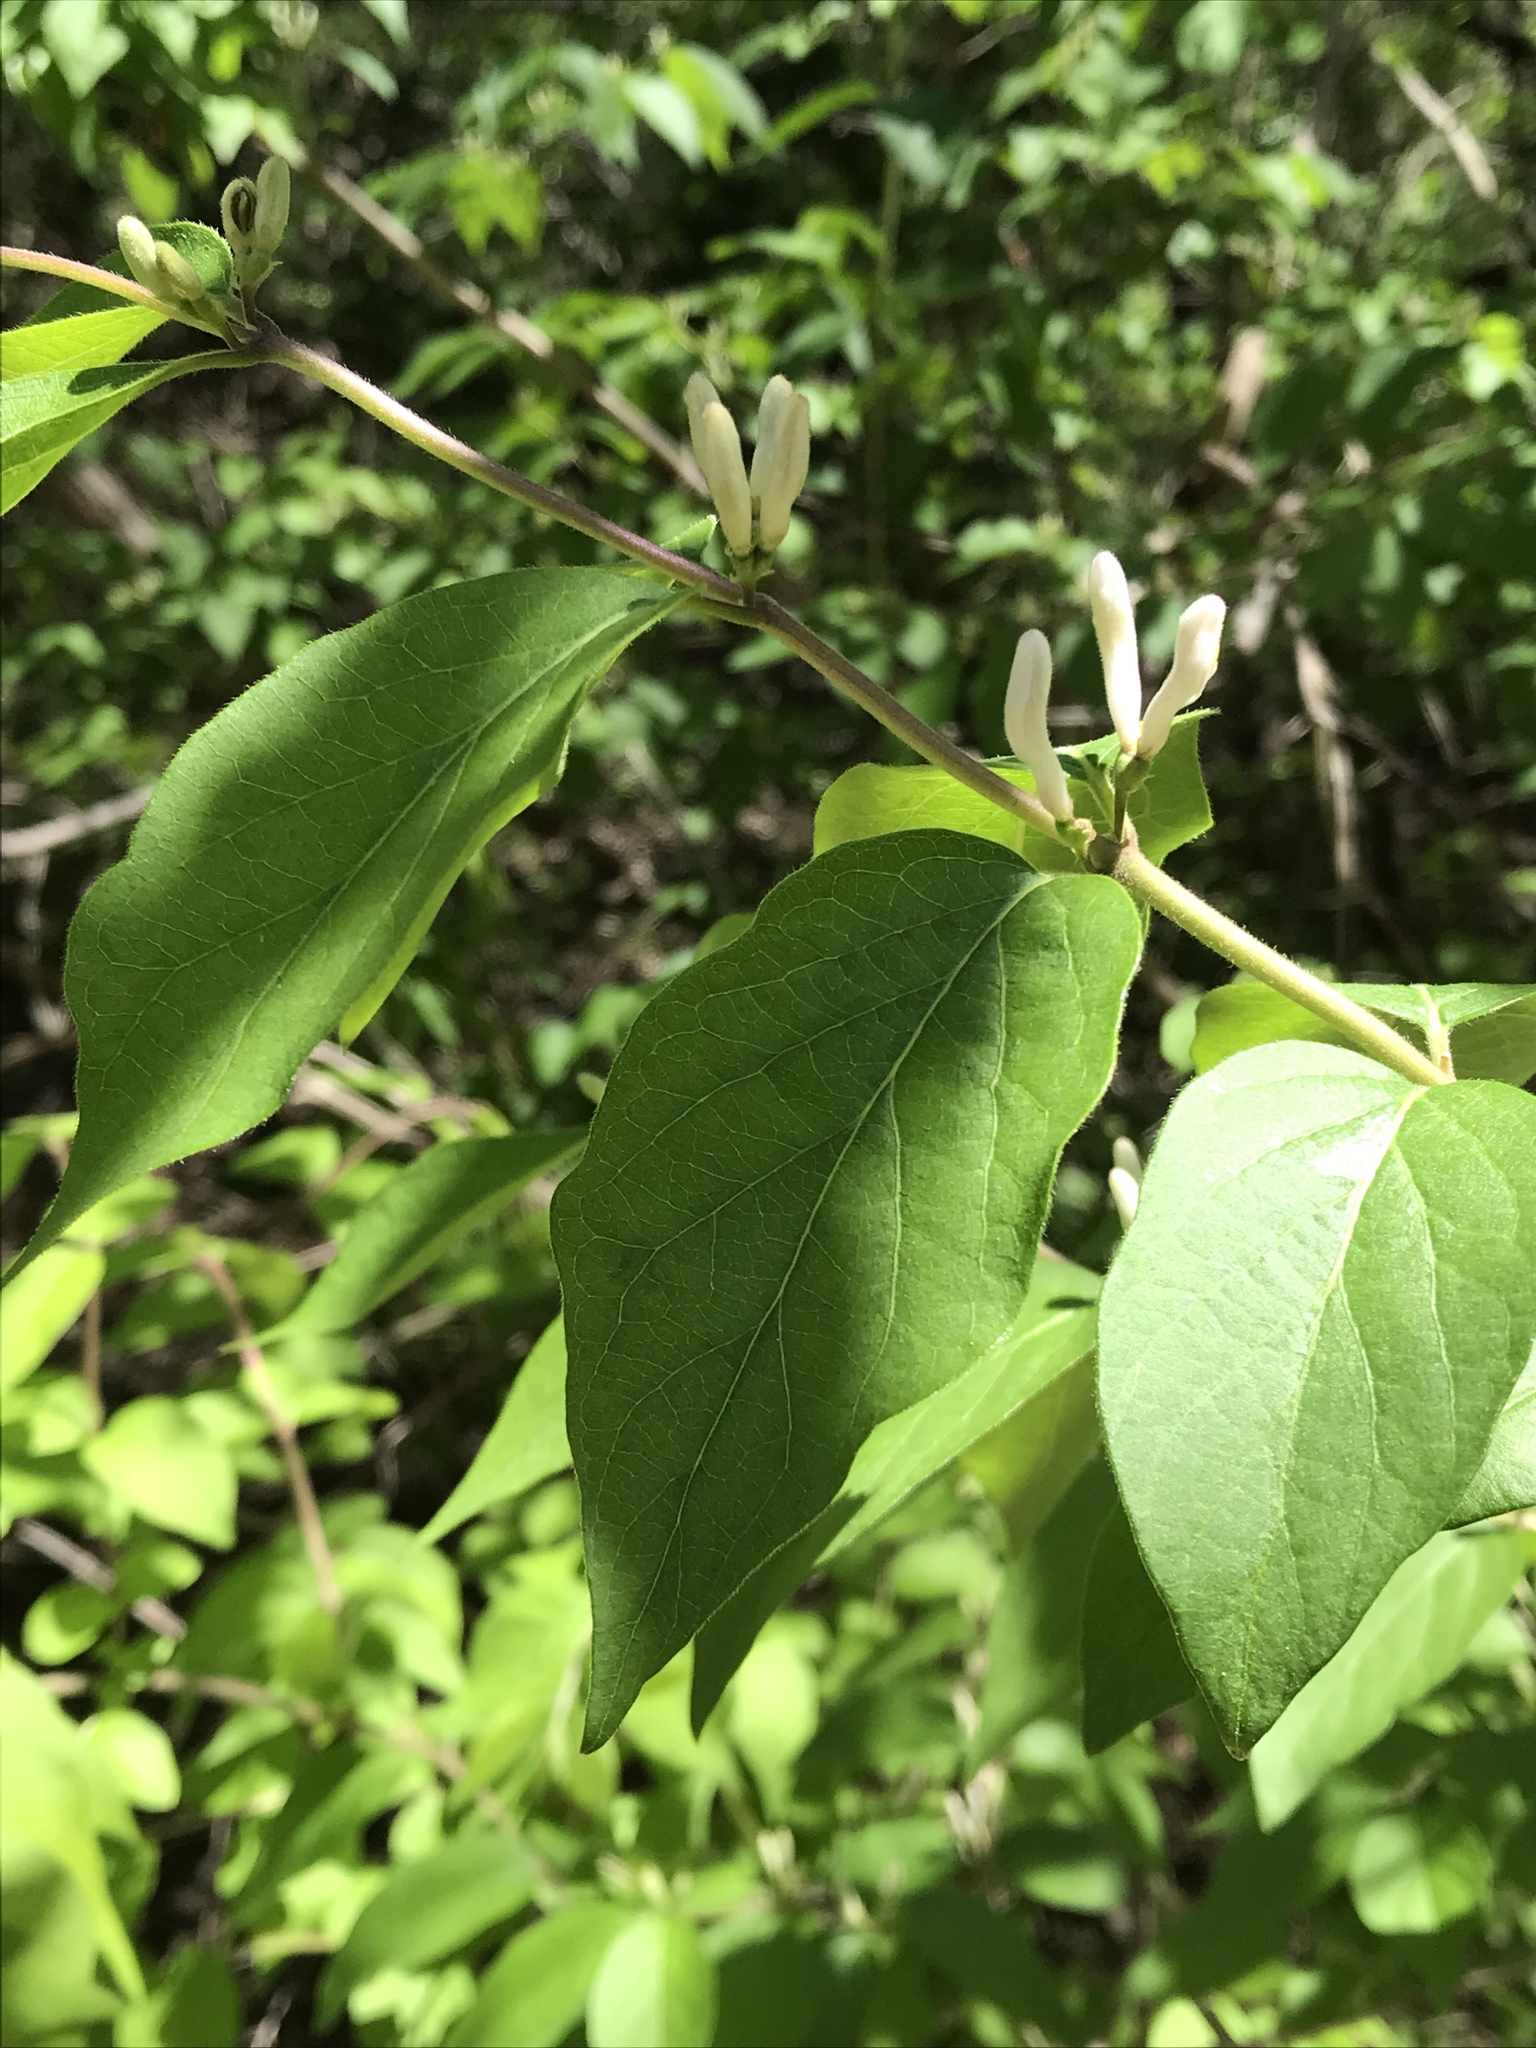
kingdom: Plantae
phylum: Tracheophyta
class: Magnoliopsida
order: Dipsacales
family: Caprifoliaceae
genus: Lonicera
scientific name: Lonicera maackii
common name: Amur honeysuckle
